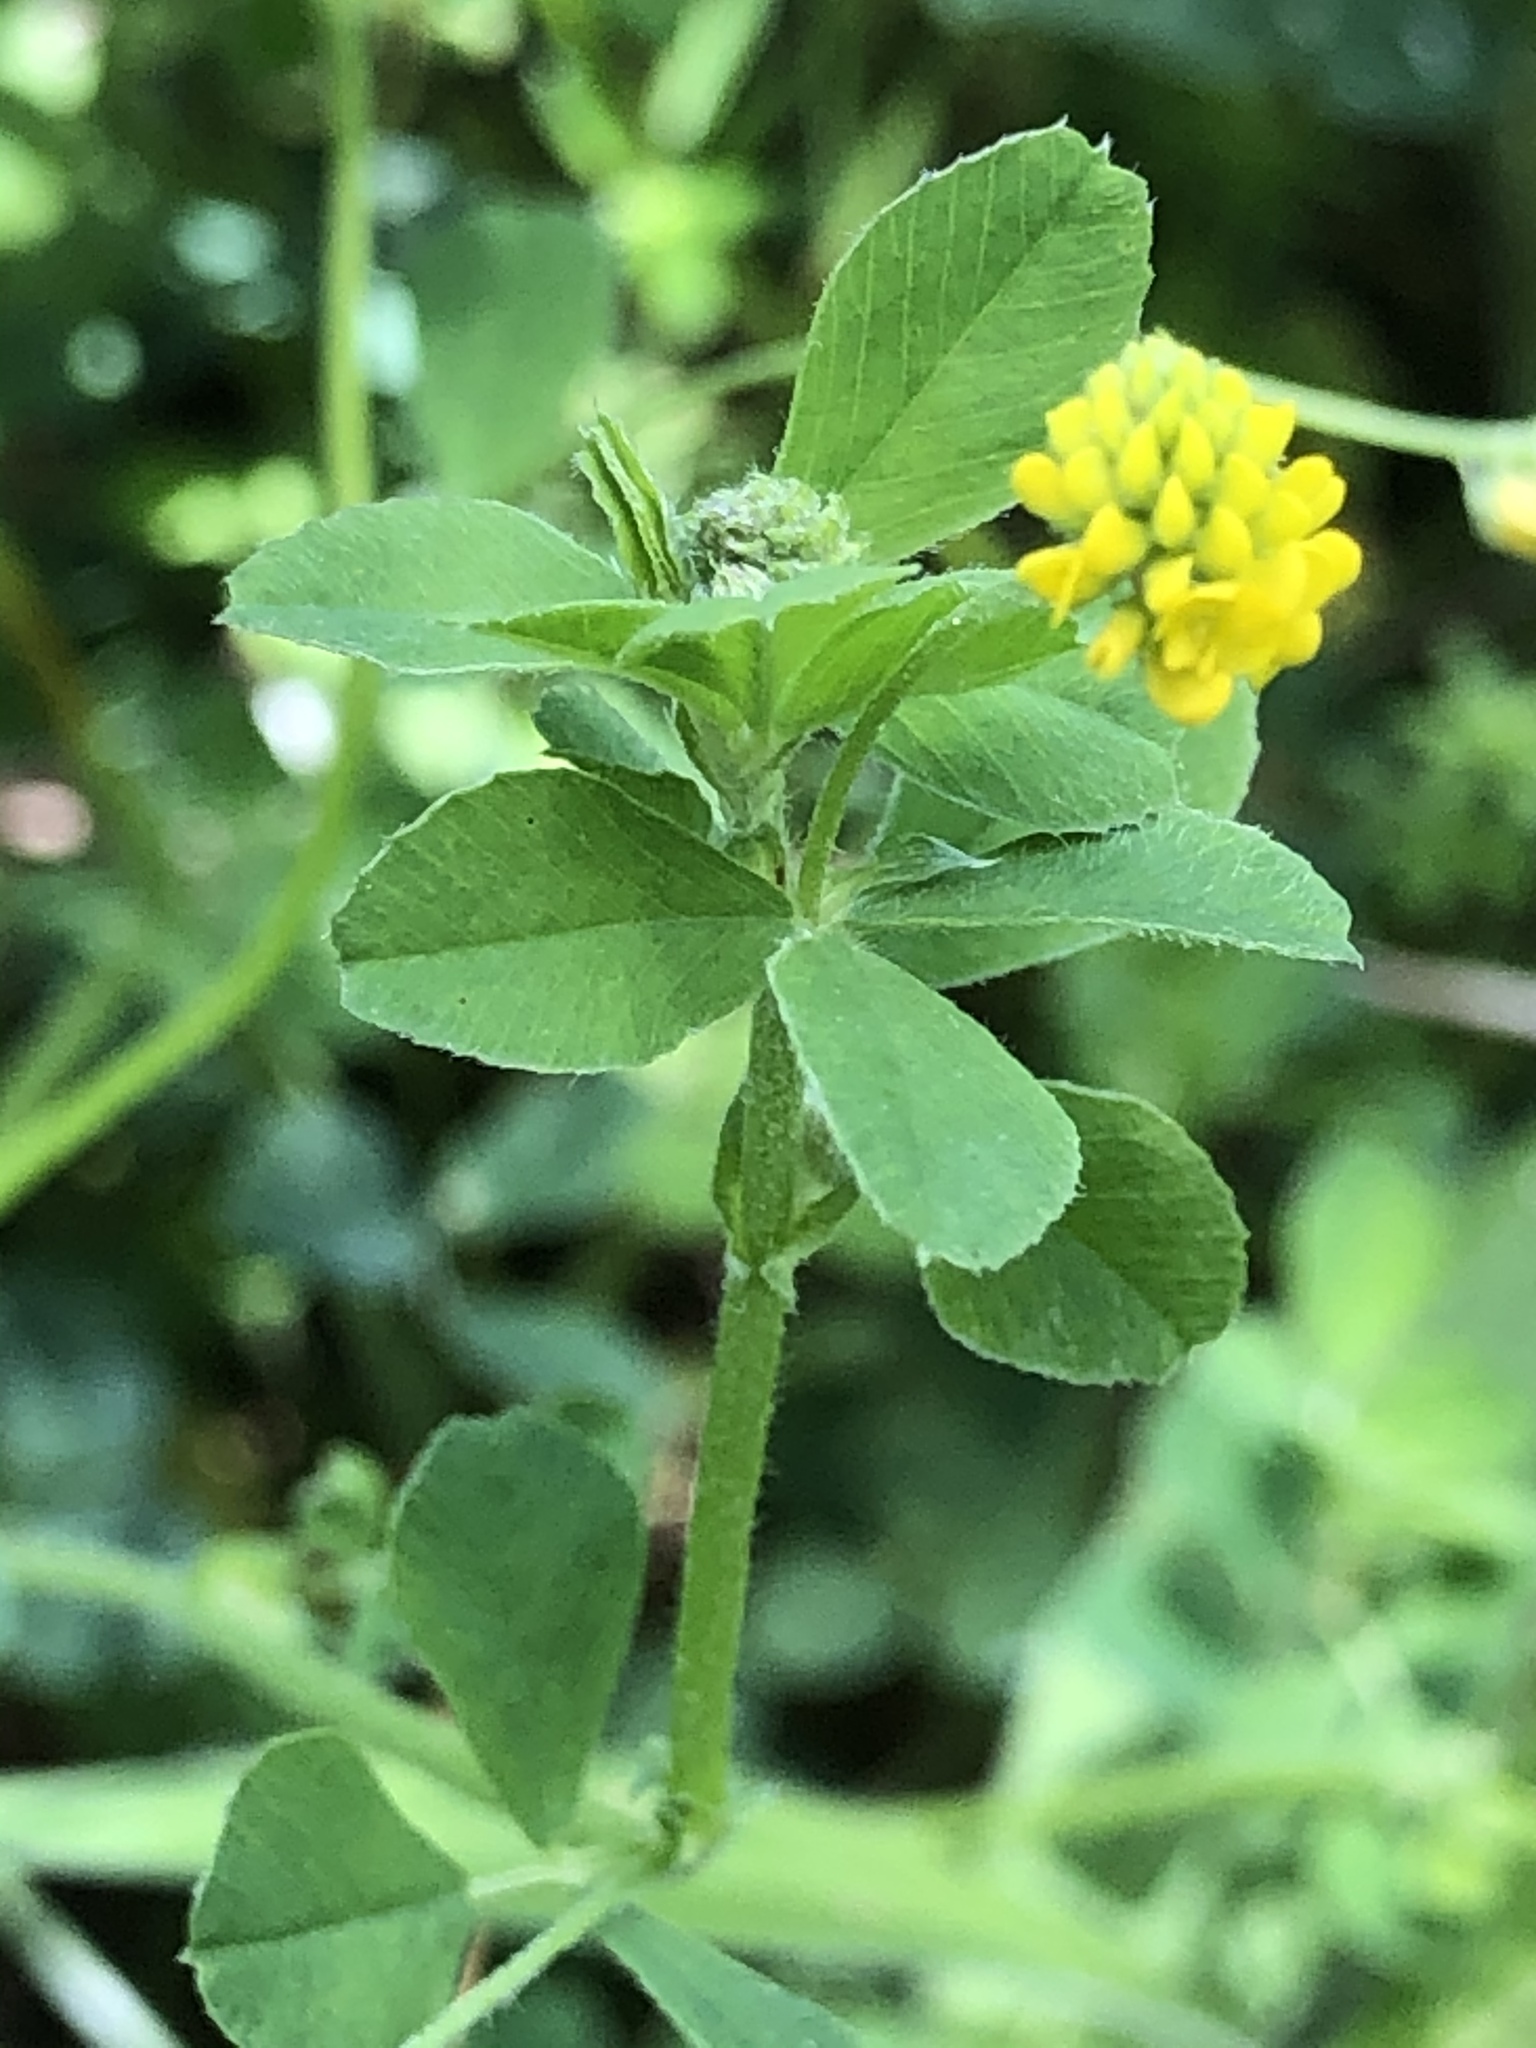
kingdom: Plantae
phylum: Tracheophyta
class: Magnoliopsida
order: Fabales
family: Fabaceae
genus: Medicago
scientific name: Medicago lupulina
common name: Black medick
